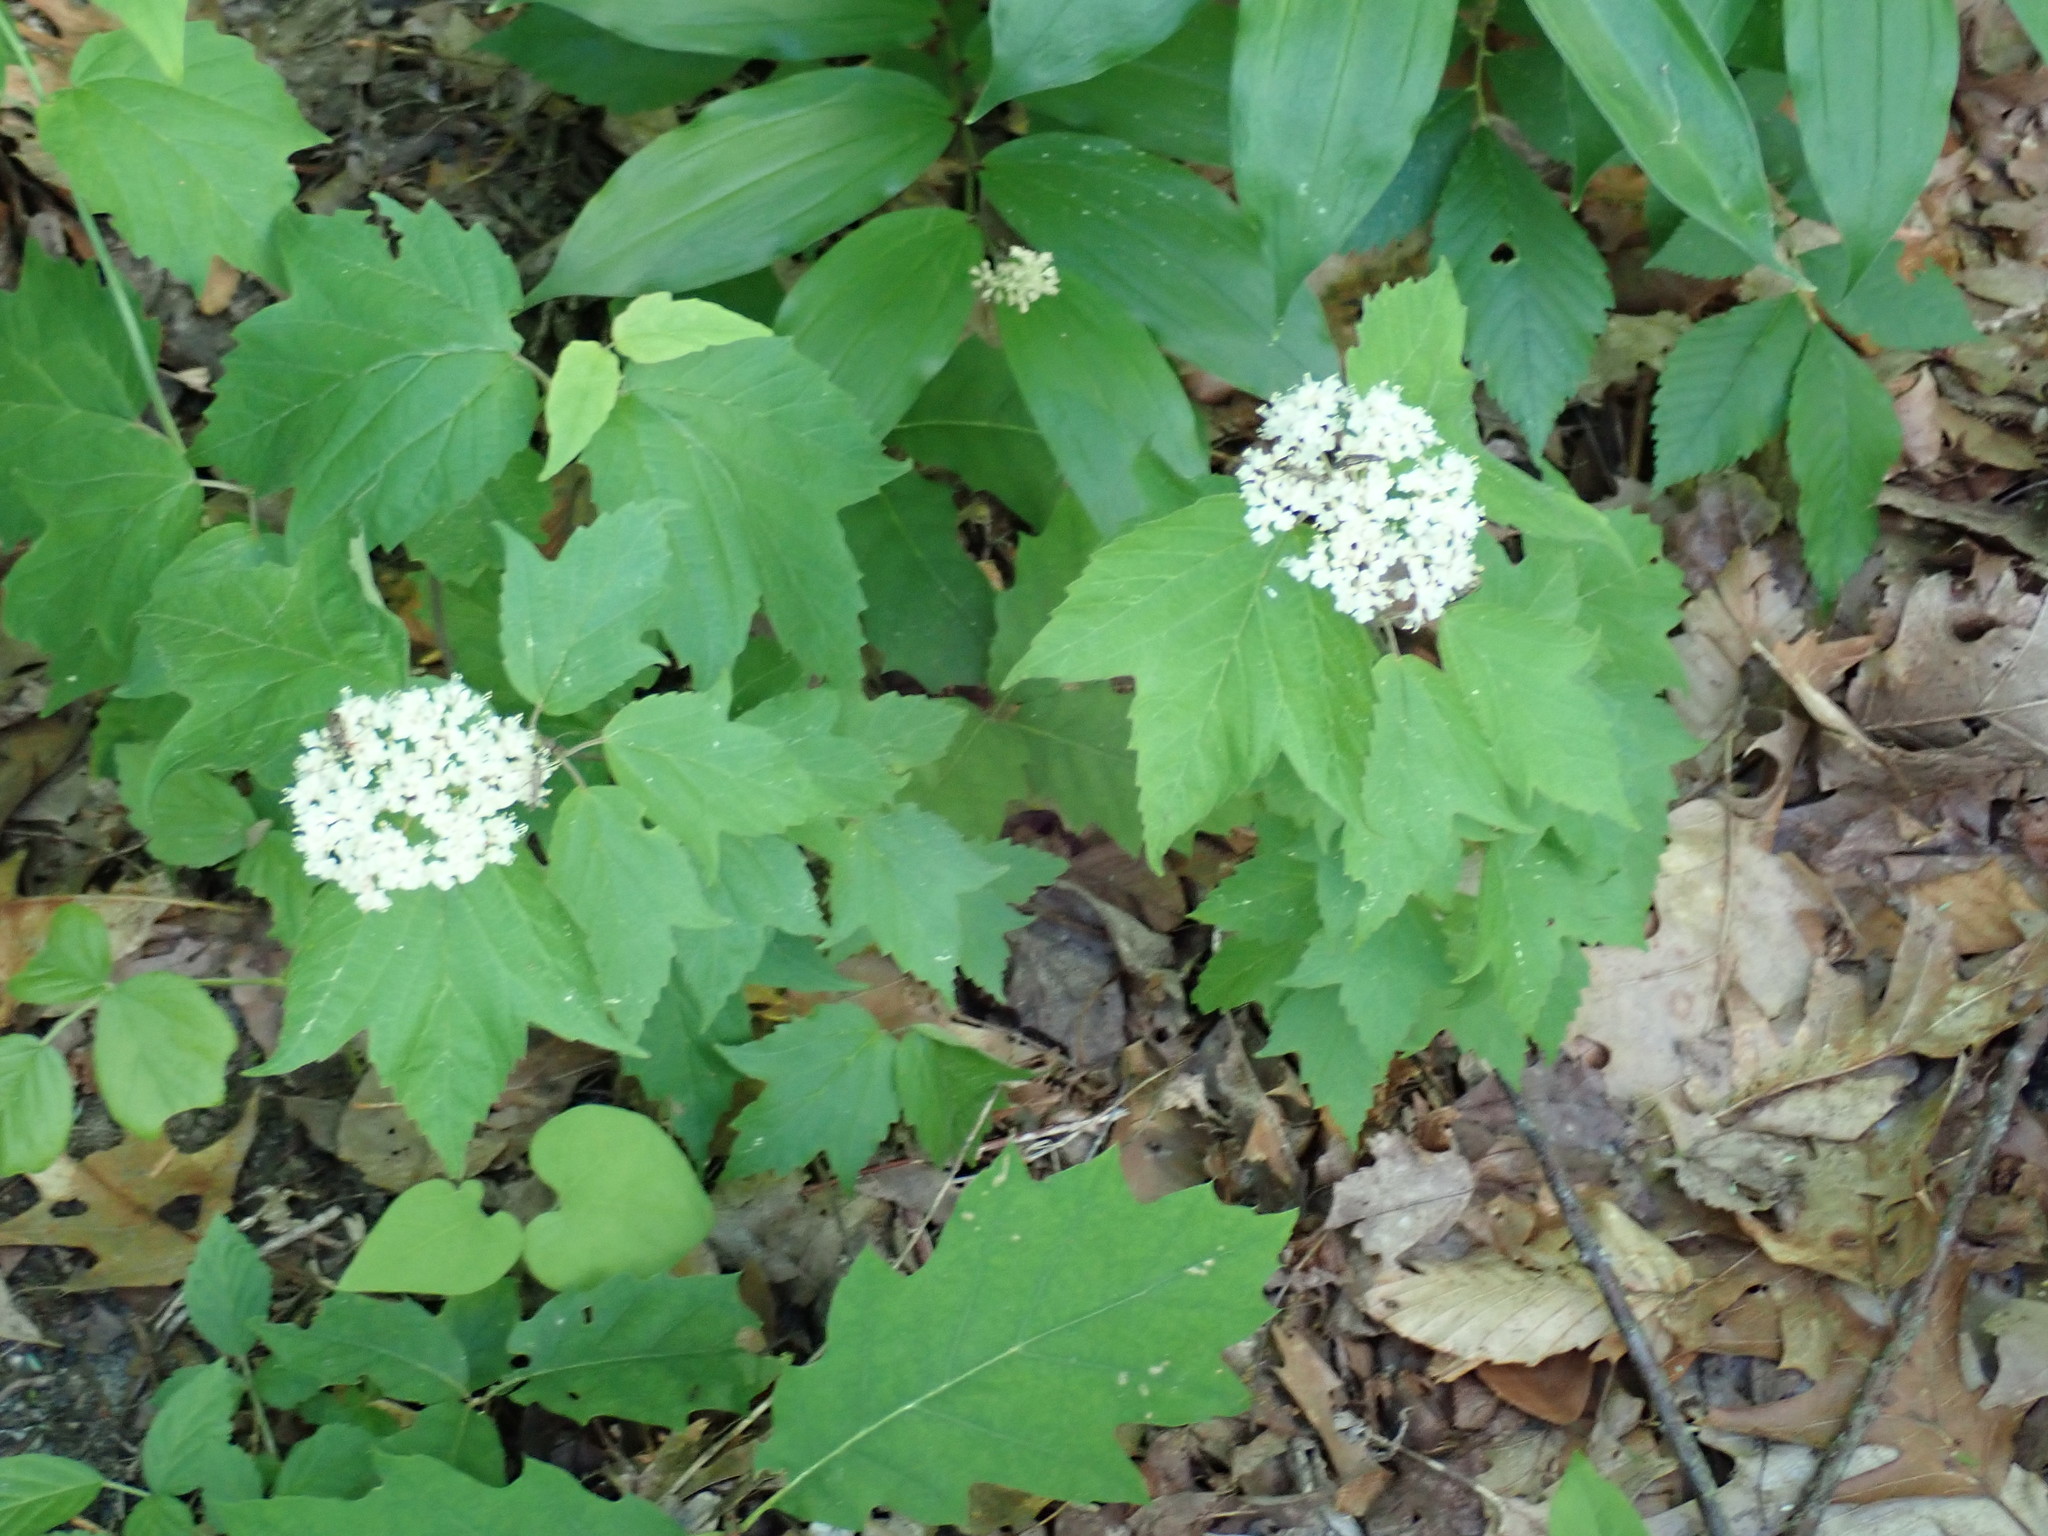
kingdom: Plantae
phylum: Tracheophyta
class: Magnoliopsida
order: Dipsacales
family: Viburnaceae
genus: Viburnum
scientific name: Viburnum acerifolium
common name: Dockmackie
